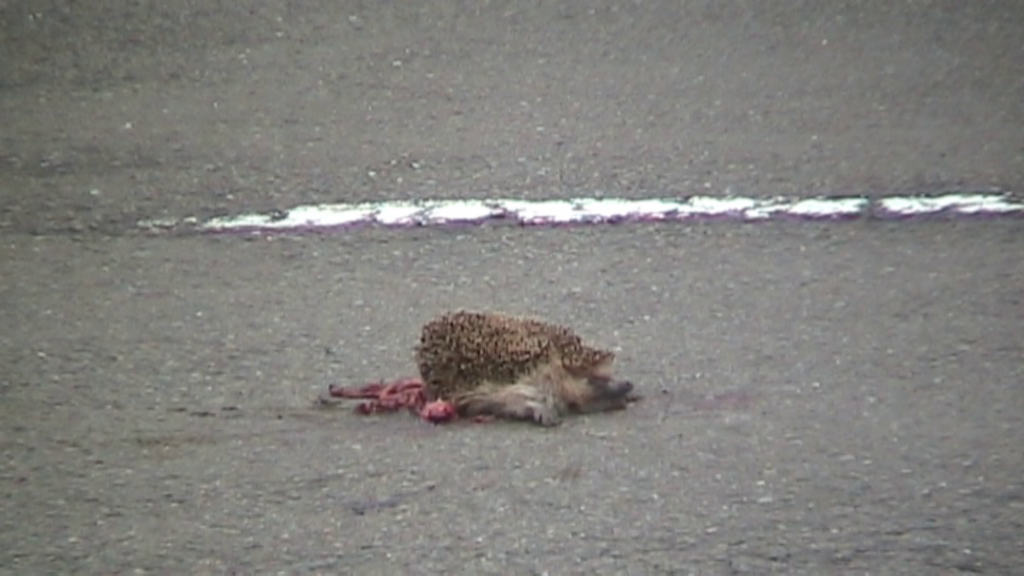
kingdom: Animalia
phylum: Chordata
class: Mammalia
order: Erinaceomorpha
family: Erinaceidae
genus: Erinaceus
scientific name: Erinaceus europaeus
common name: West european hedgehog
